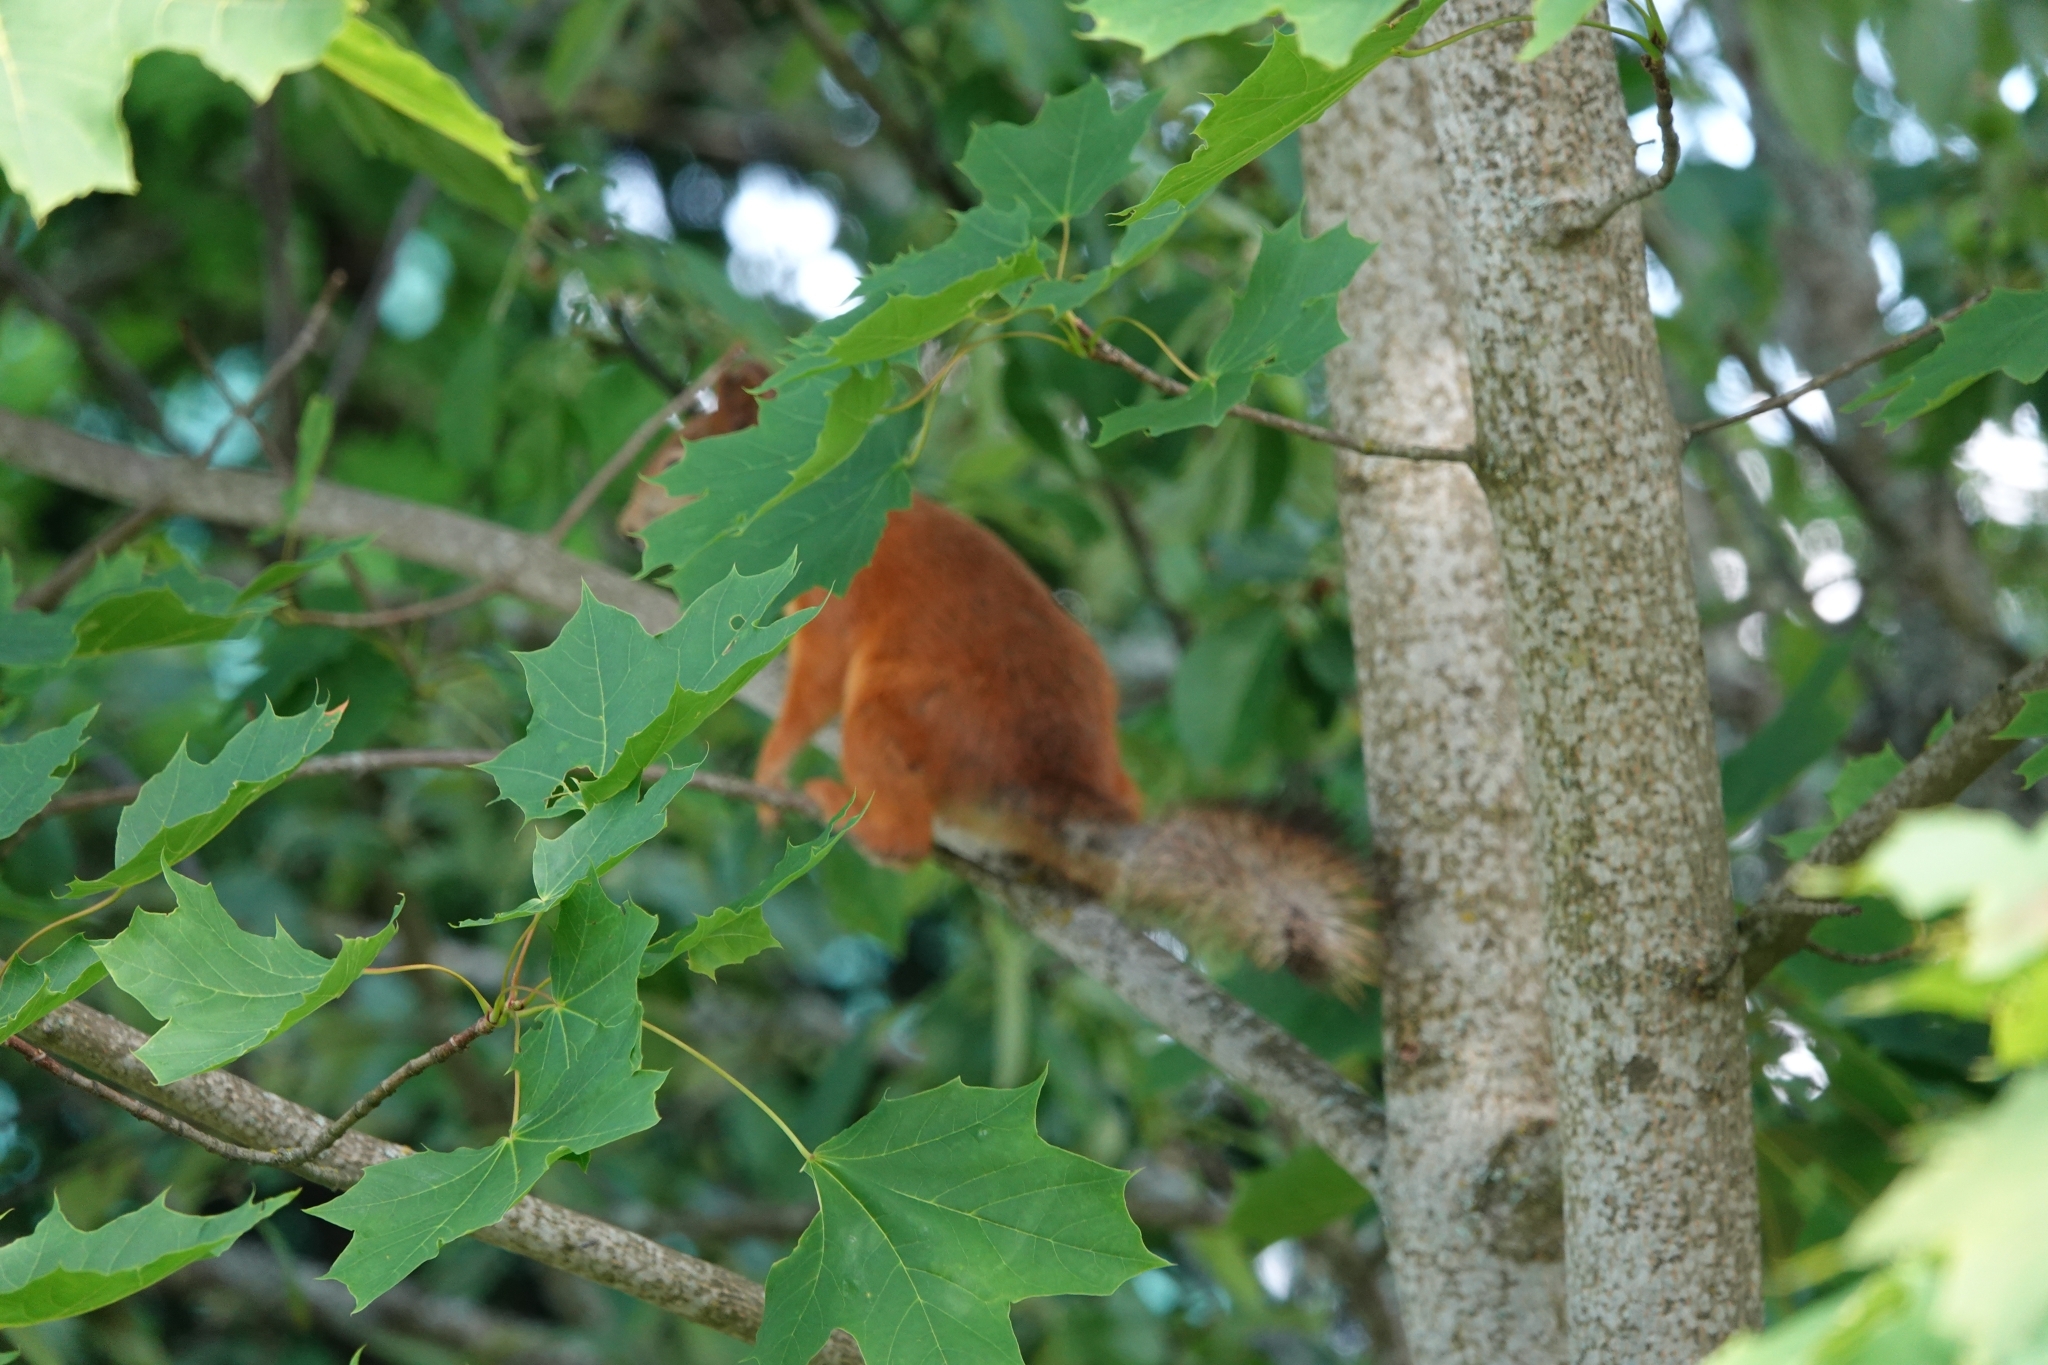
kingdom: Animalia
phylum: Chordata
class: Mammalia
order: Rodentia
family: Sciuridae
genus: Sciurus
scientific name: Sciurus vulgaris
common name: Eurasian red squirrel
